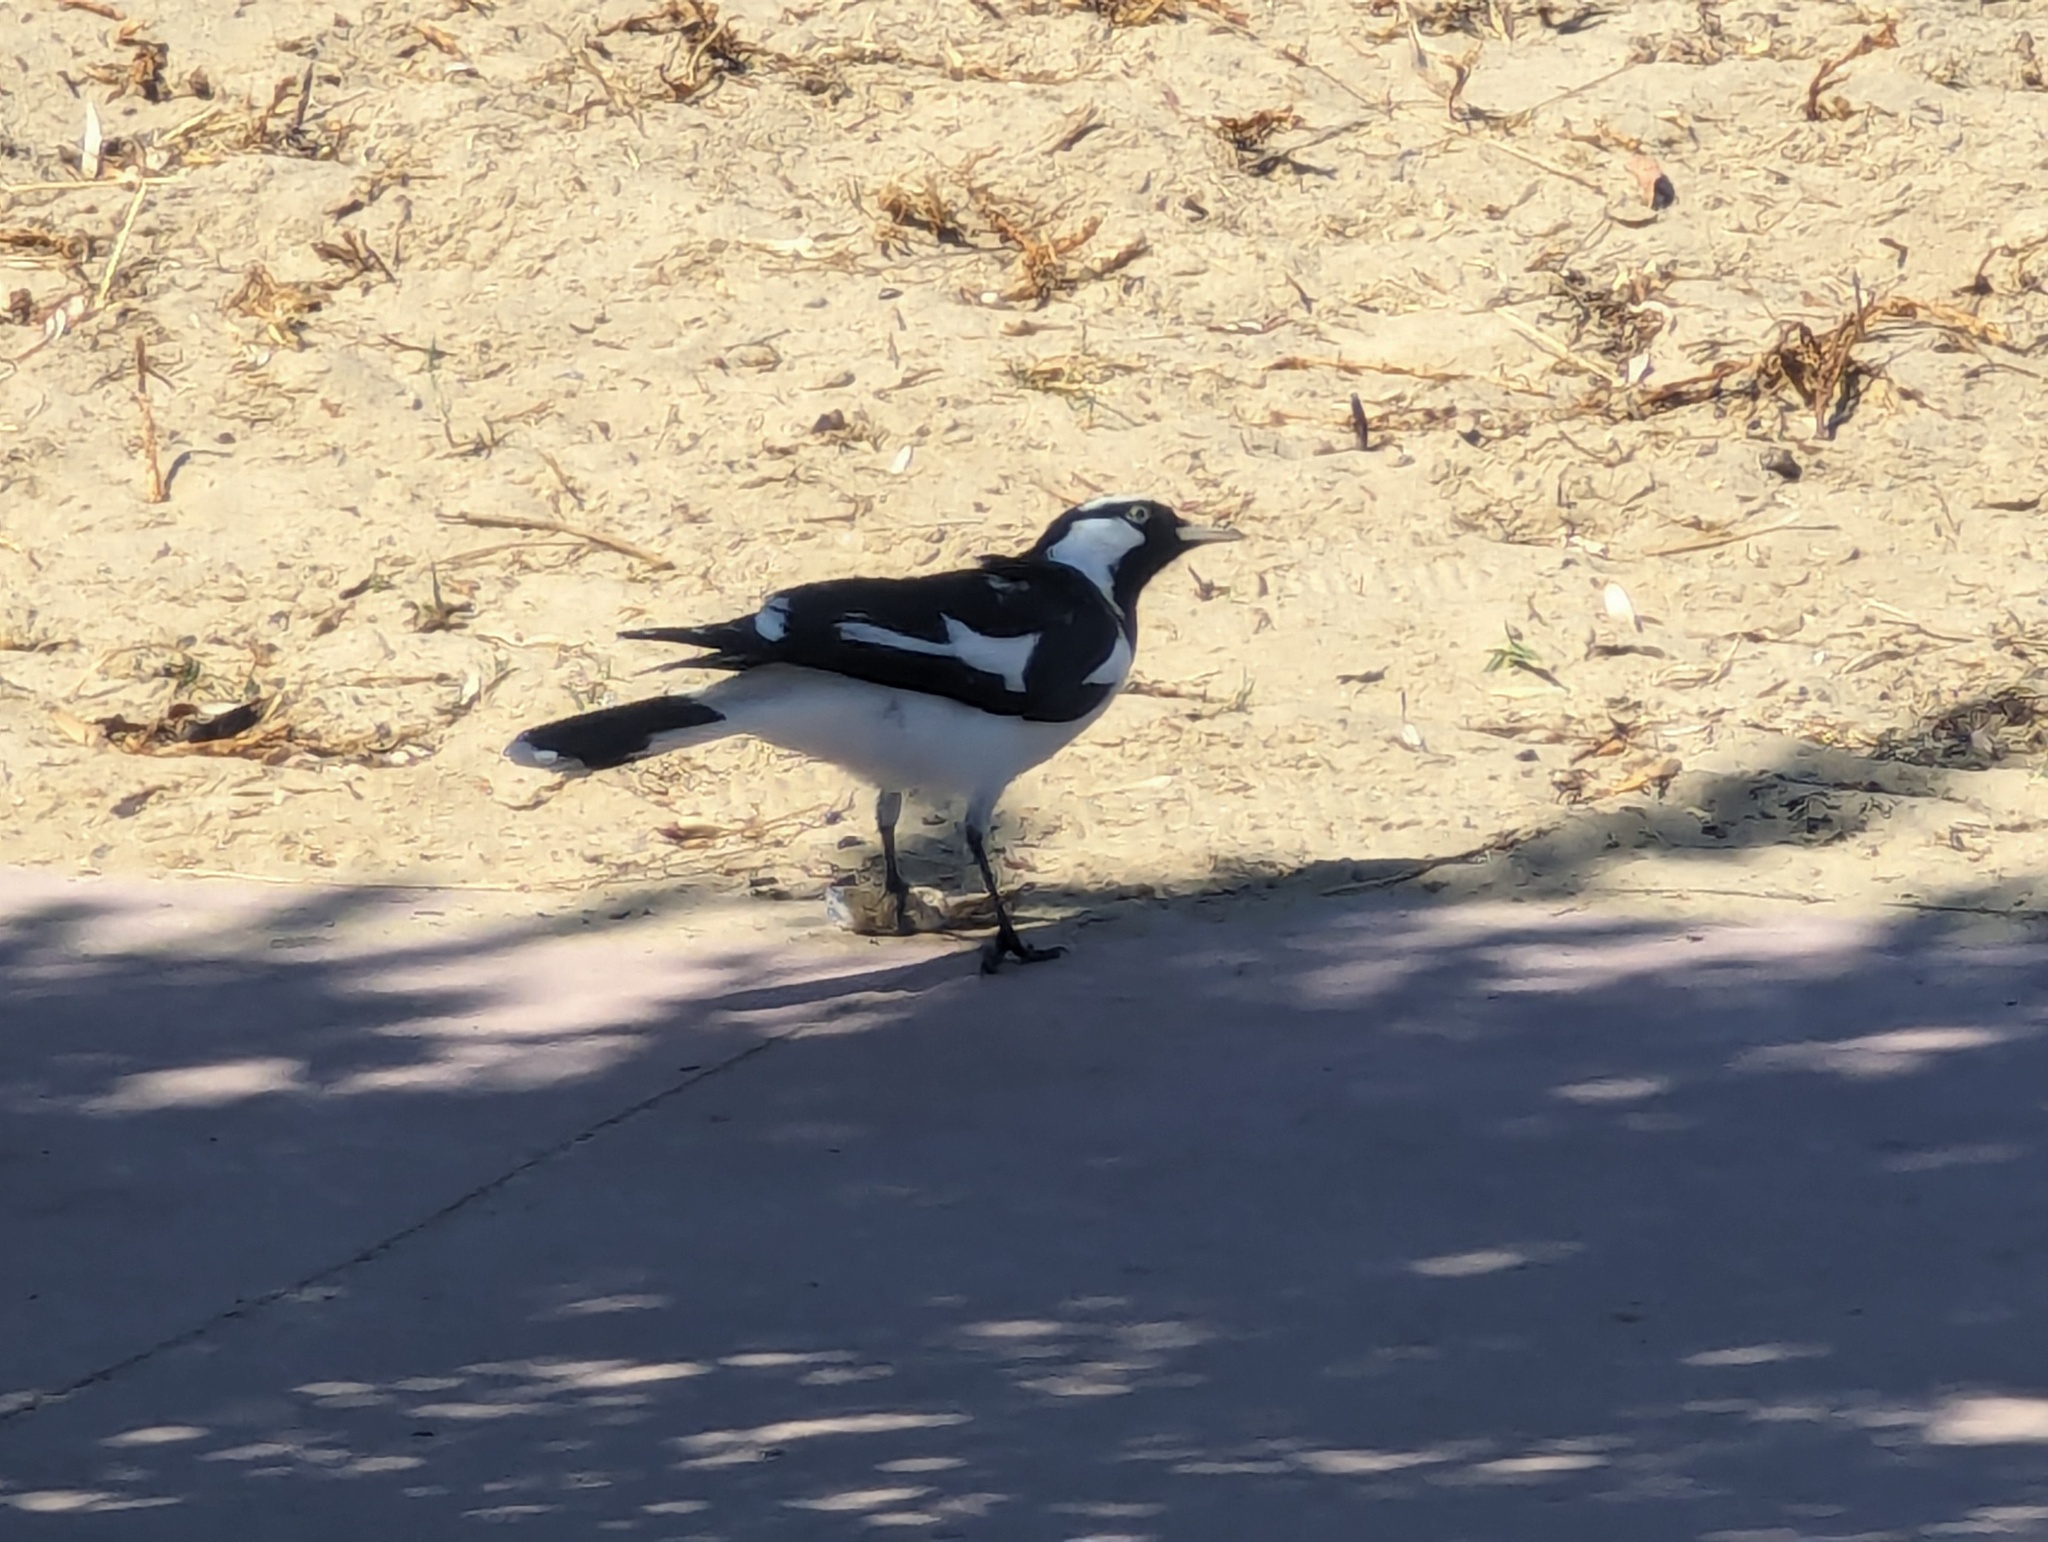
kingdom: Animalia
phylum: Chordata
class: Aves
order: Passeriformes
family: Monarchidae
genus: Grallina
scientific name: Grallina cyanoleuca
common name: Magpie-lark
